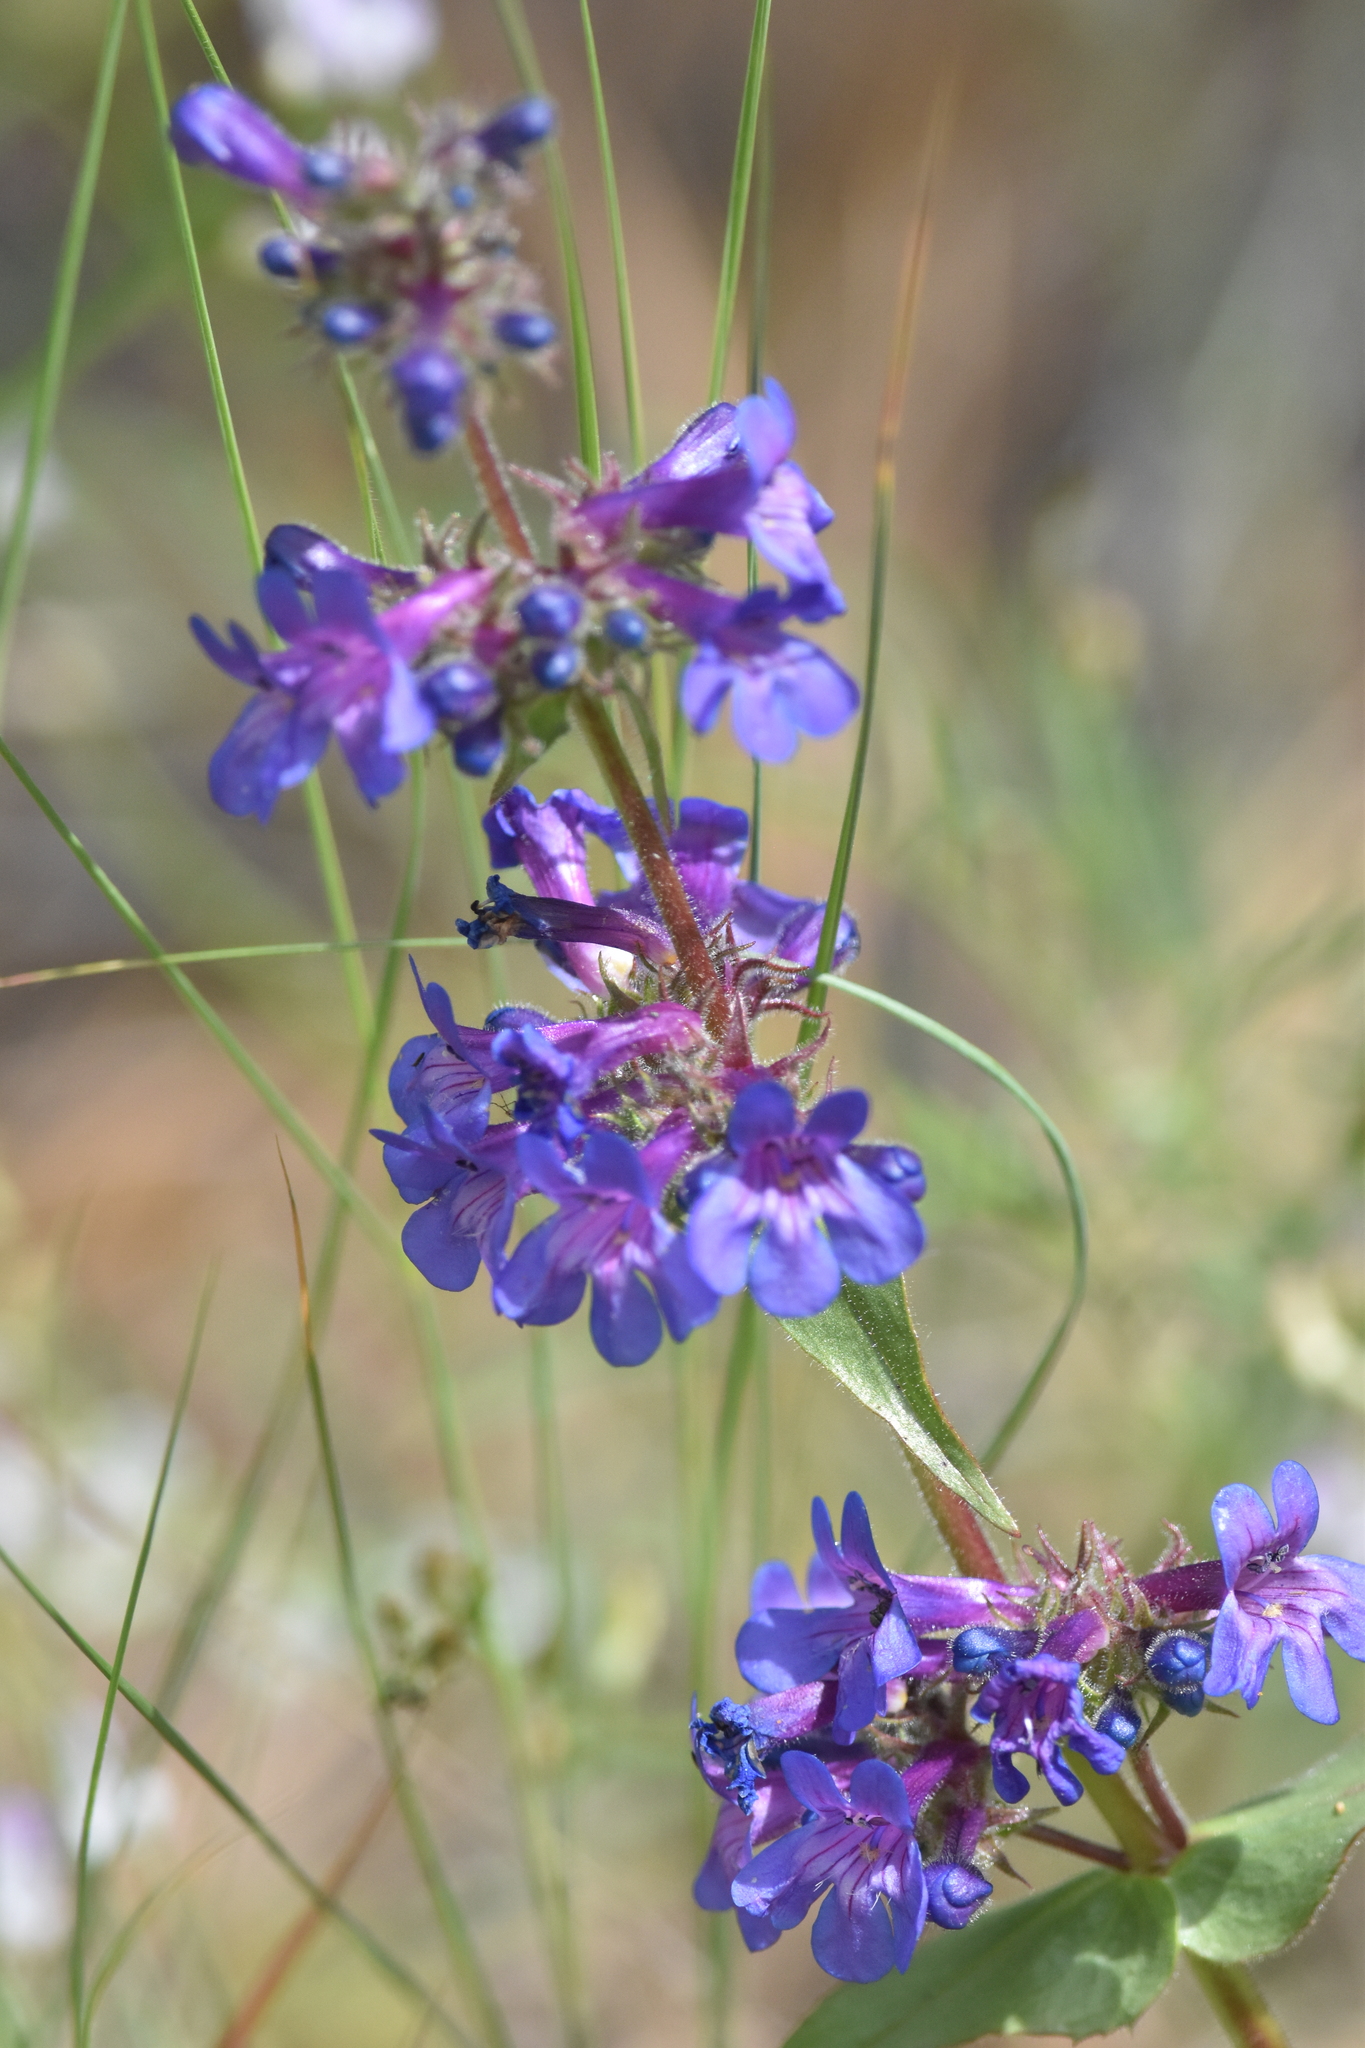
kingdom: Plantae
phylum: Tracheophyta
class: Magnoliopsida
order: Lamiales
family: Plantaginaceae
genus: Penstemon
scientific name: Penstemon pruinosus
